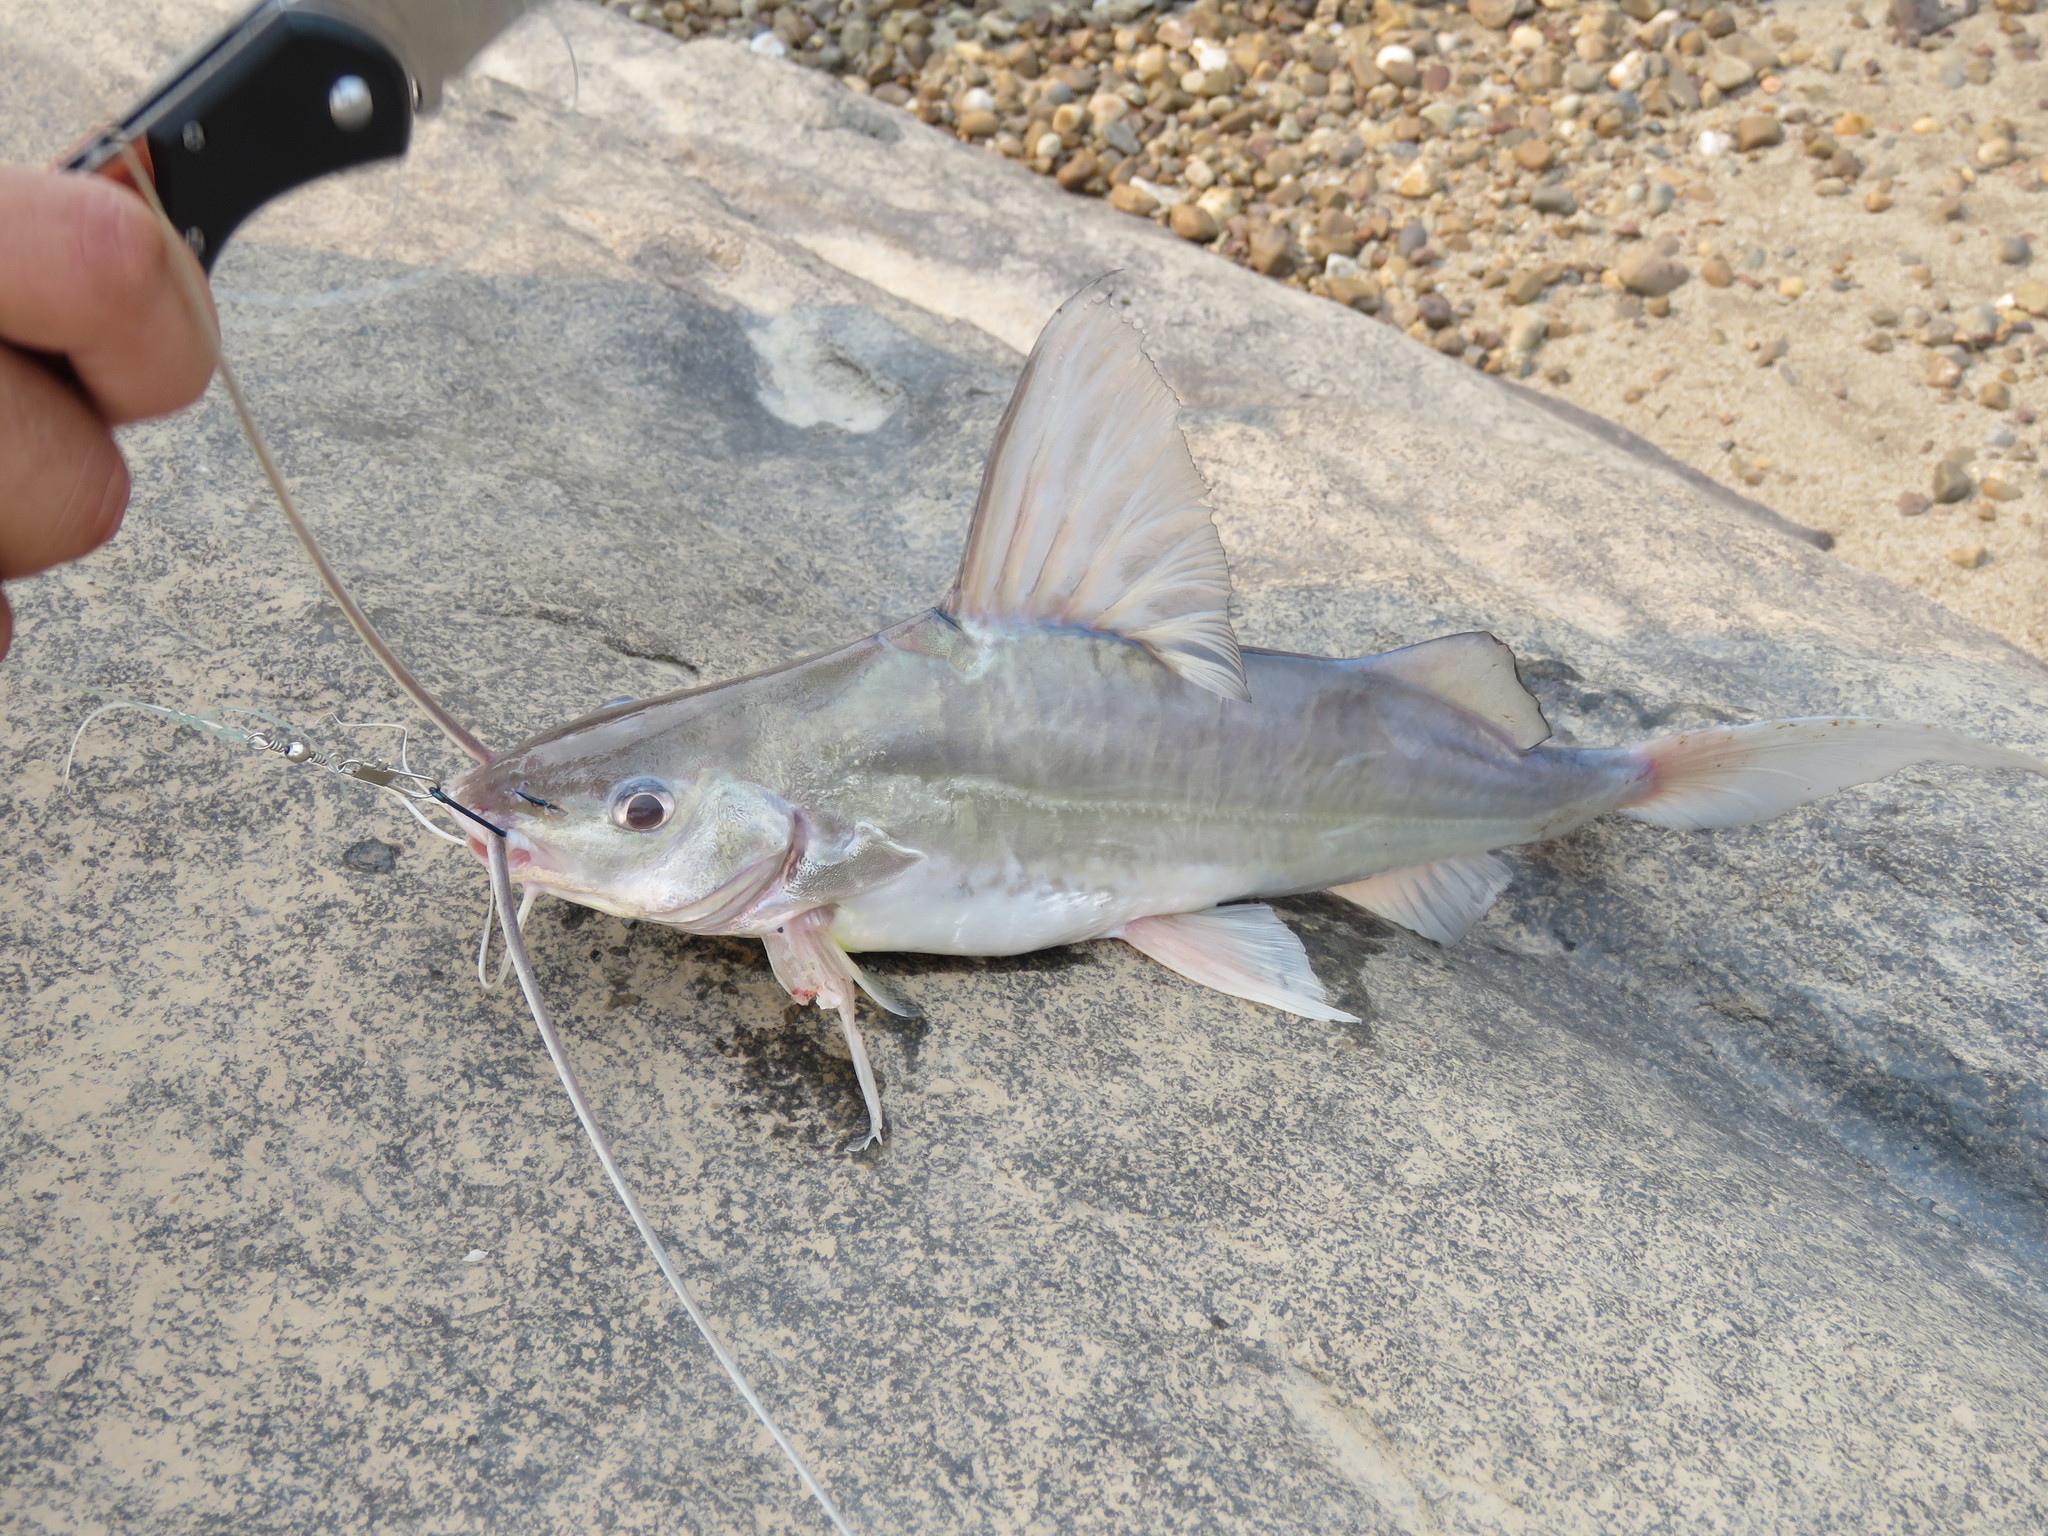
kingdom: Animalia
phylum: Chordata
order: Siluriformes
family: Pimelodidae
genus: Pimelodus
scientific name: Pimelodus blochii
